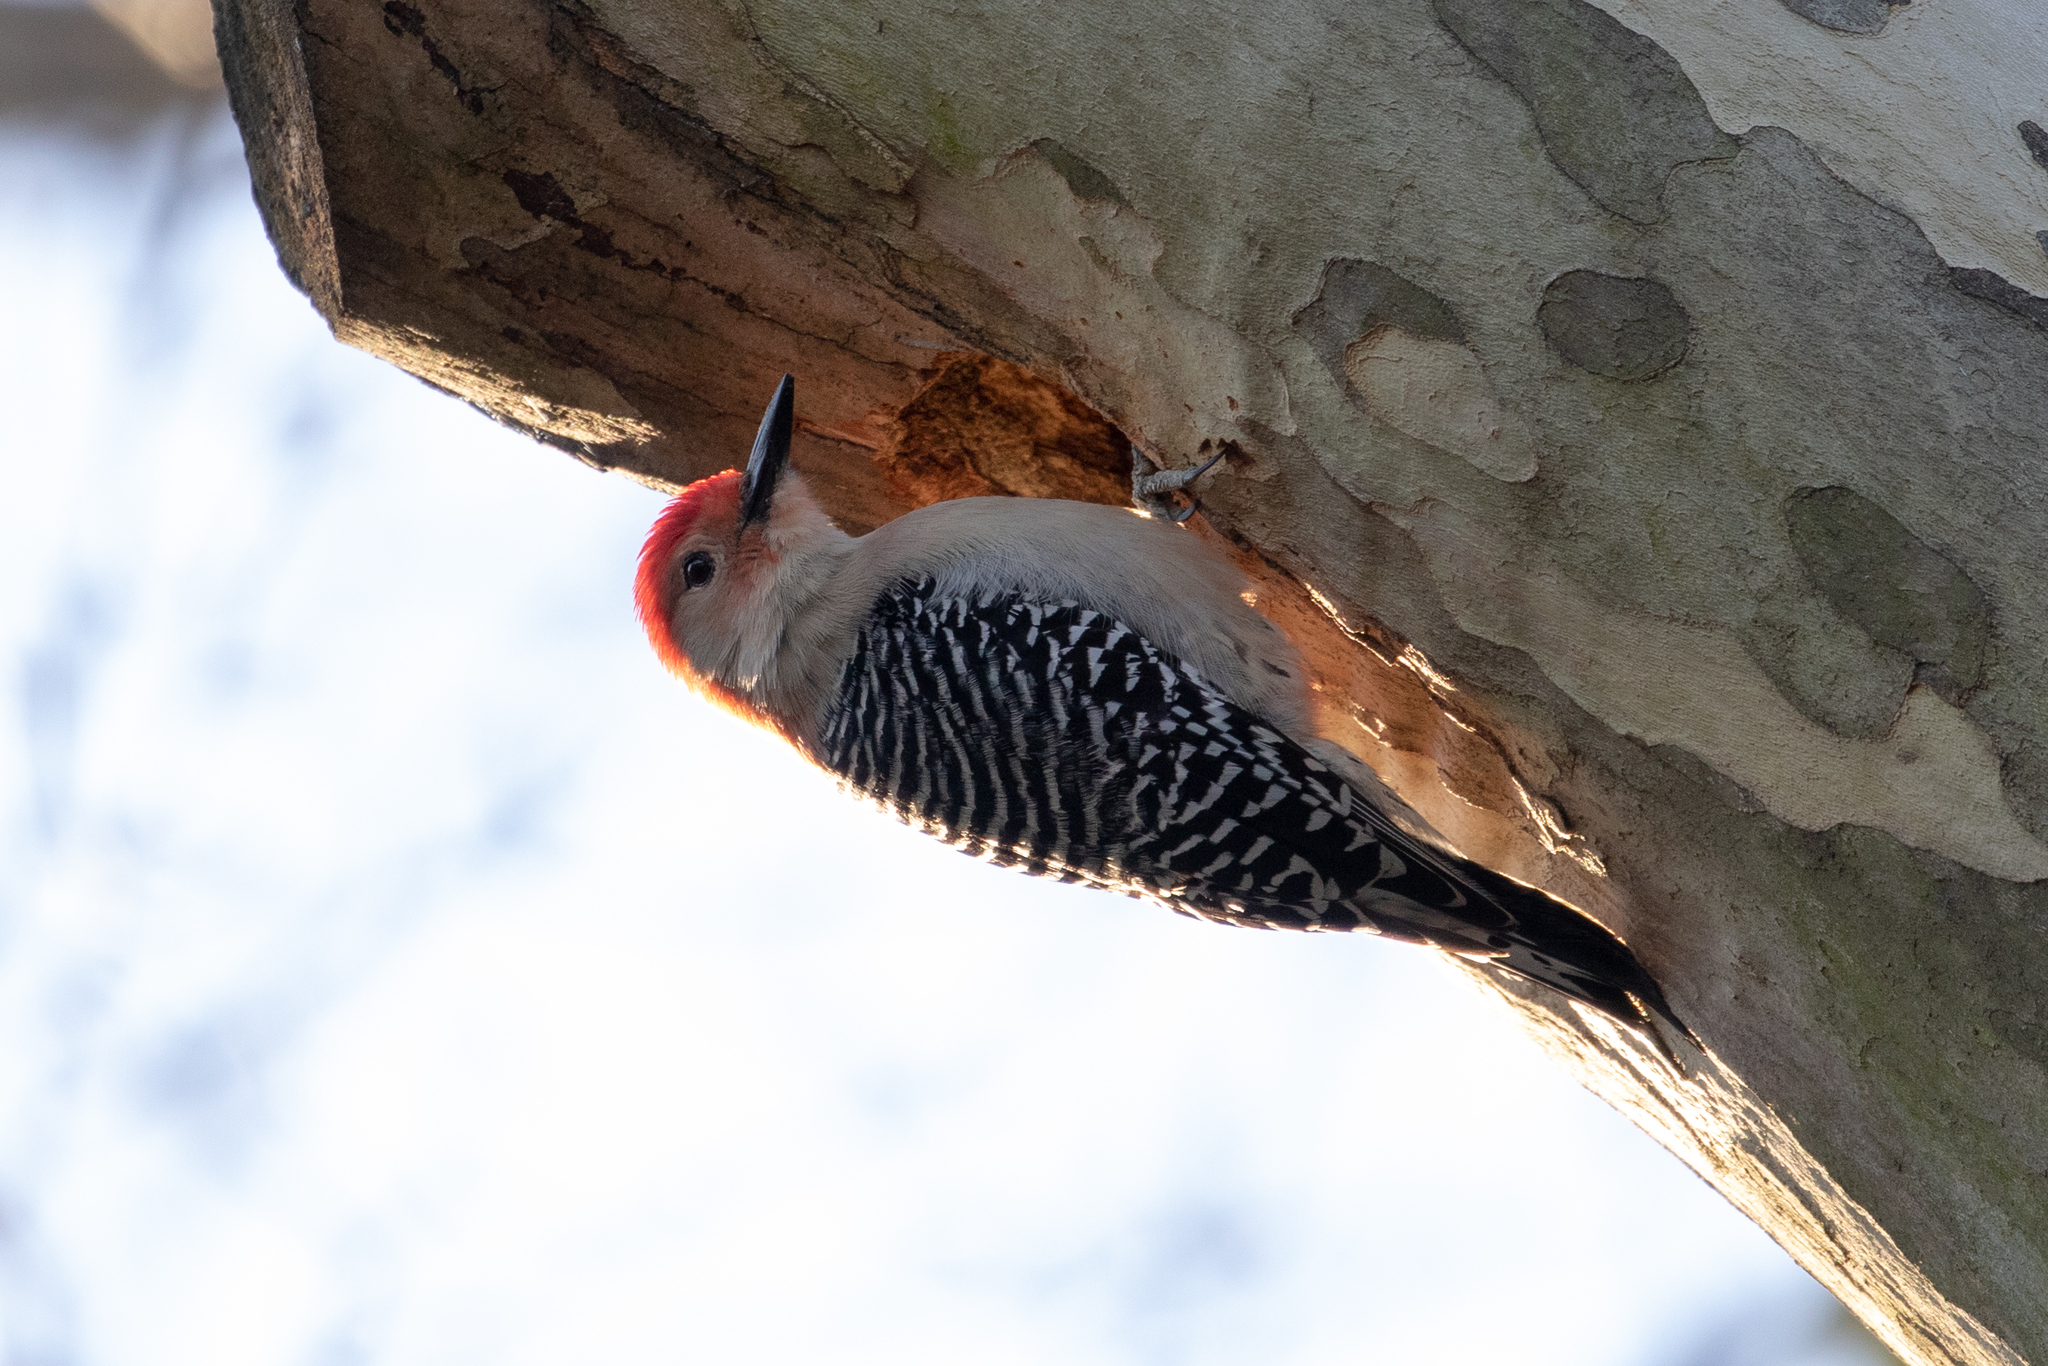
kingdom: Animalia
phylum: Chordata
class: Aves
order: Piciformes
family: Picidae
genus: Melanerpes
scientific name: Melanerpes carolinus
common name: Red-bellied woodpecker
